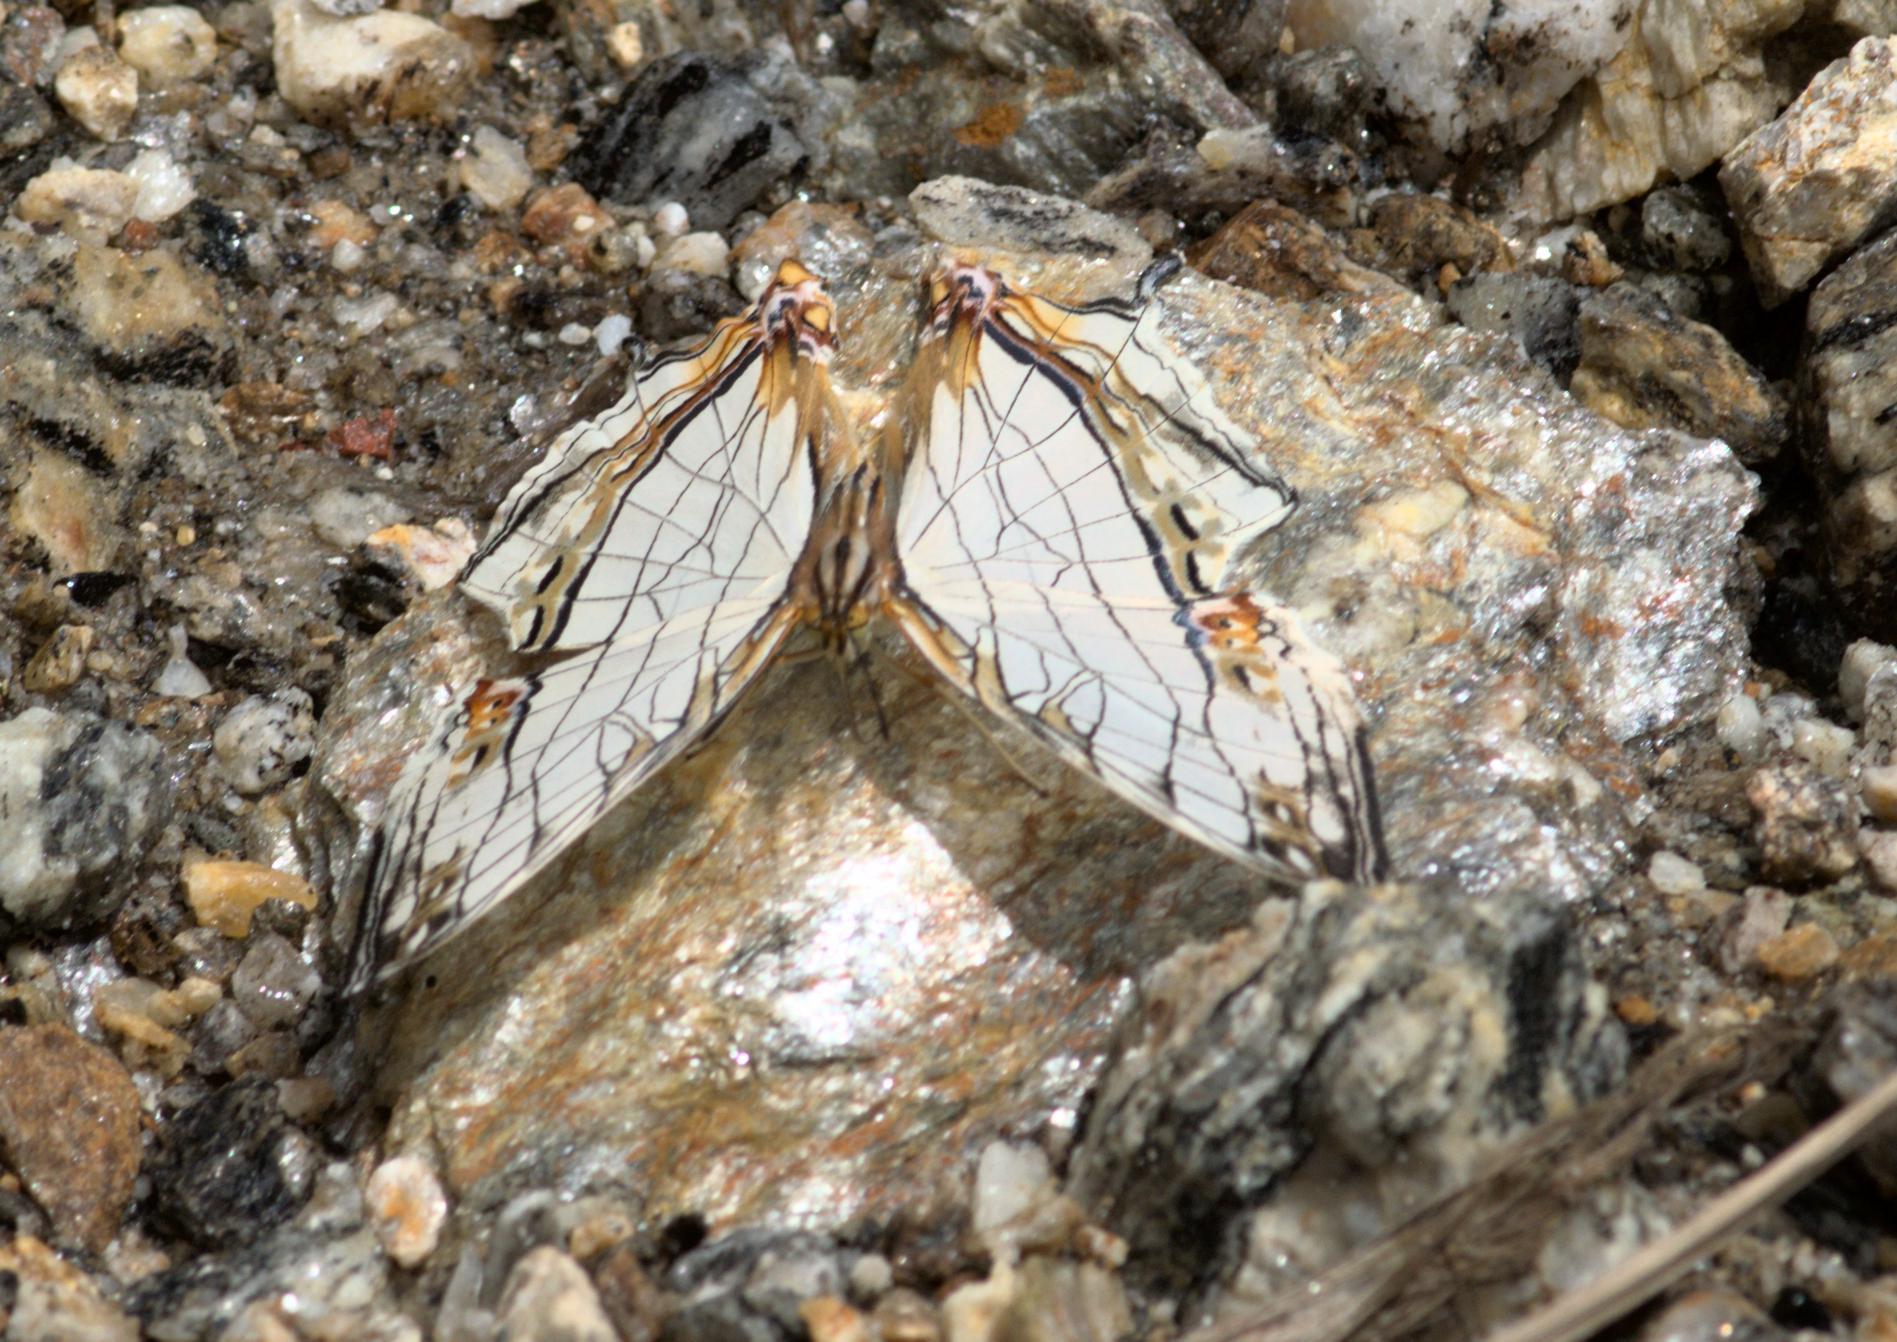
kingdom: Animalia
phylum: Arthropoda
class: Insecta
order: Lepidoptera
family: Nymphalidae
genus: Cyrestis
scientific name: Cyrestis thyodamas
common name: Common mapwing
